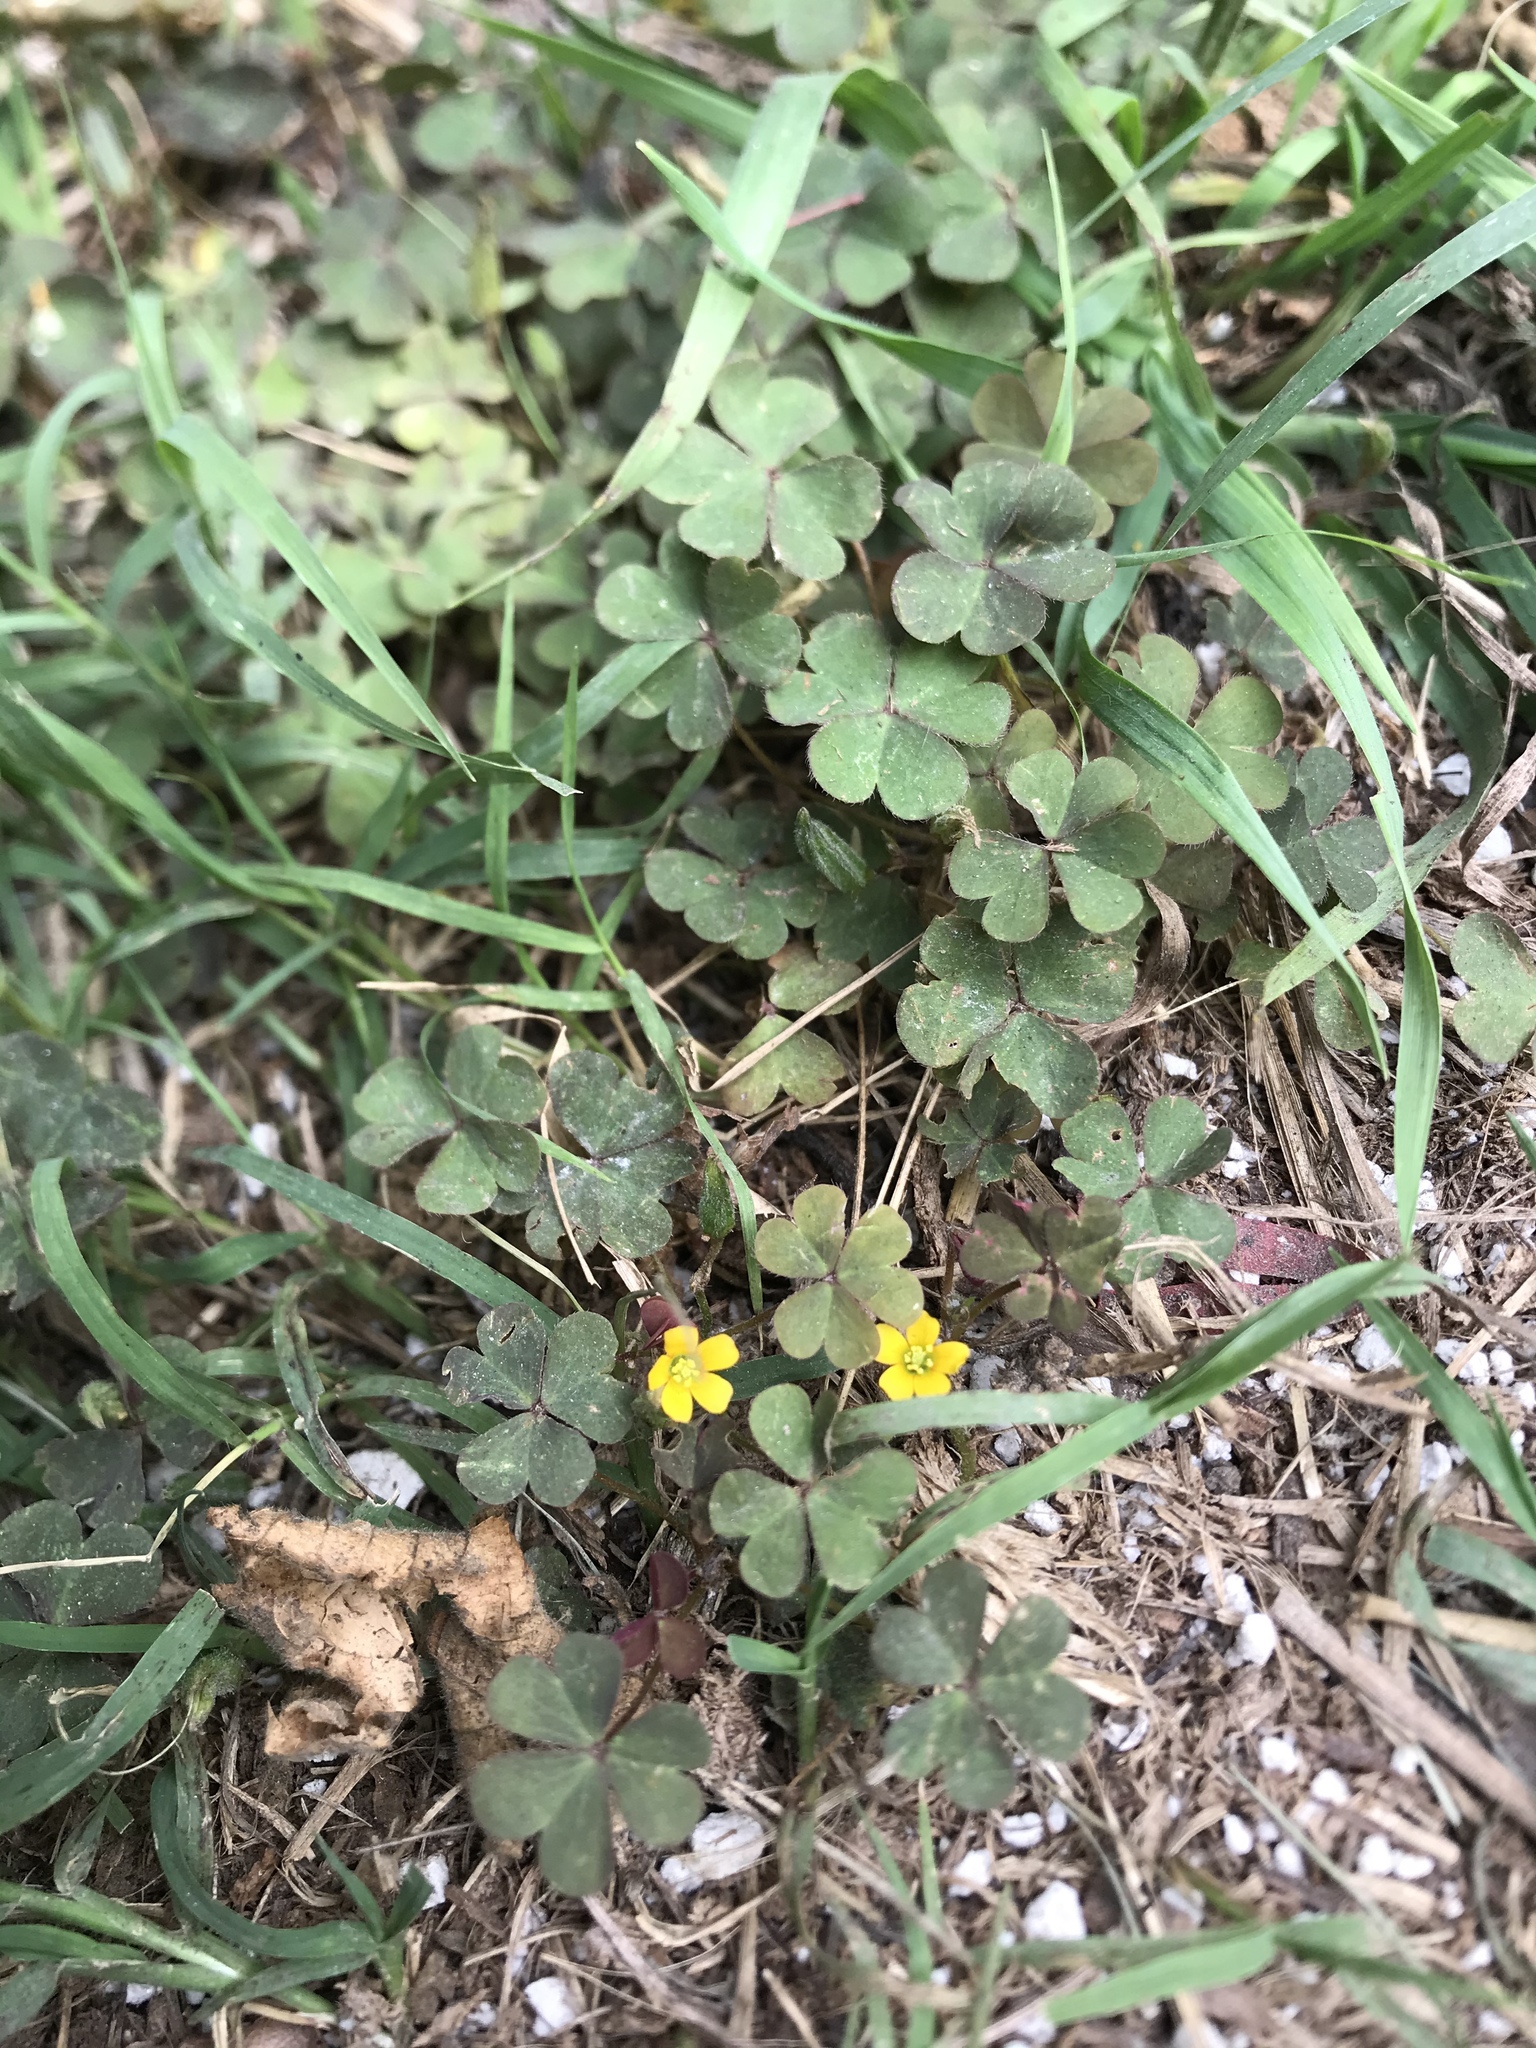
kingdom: Plantae
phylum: Tracheophyta
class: Magnoliopsida
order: Oxalidales
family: Oxalidaceae
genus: Oxalis
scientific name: Oxalis corniculata
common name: Procumbent yellow-sorrel
